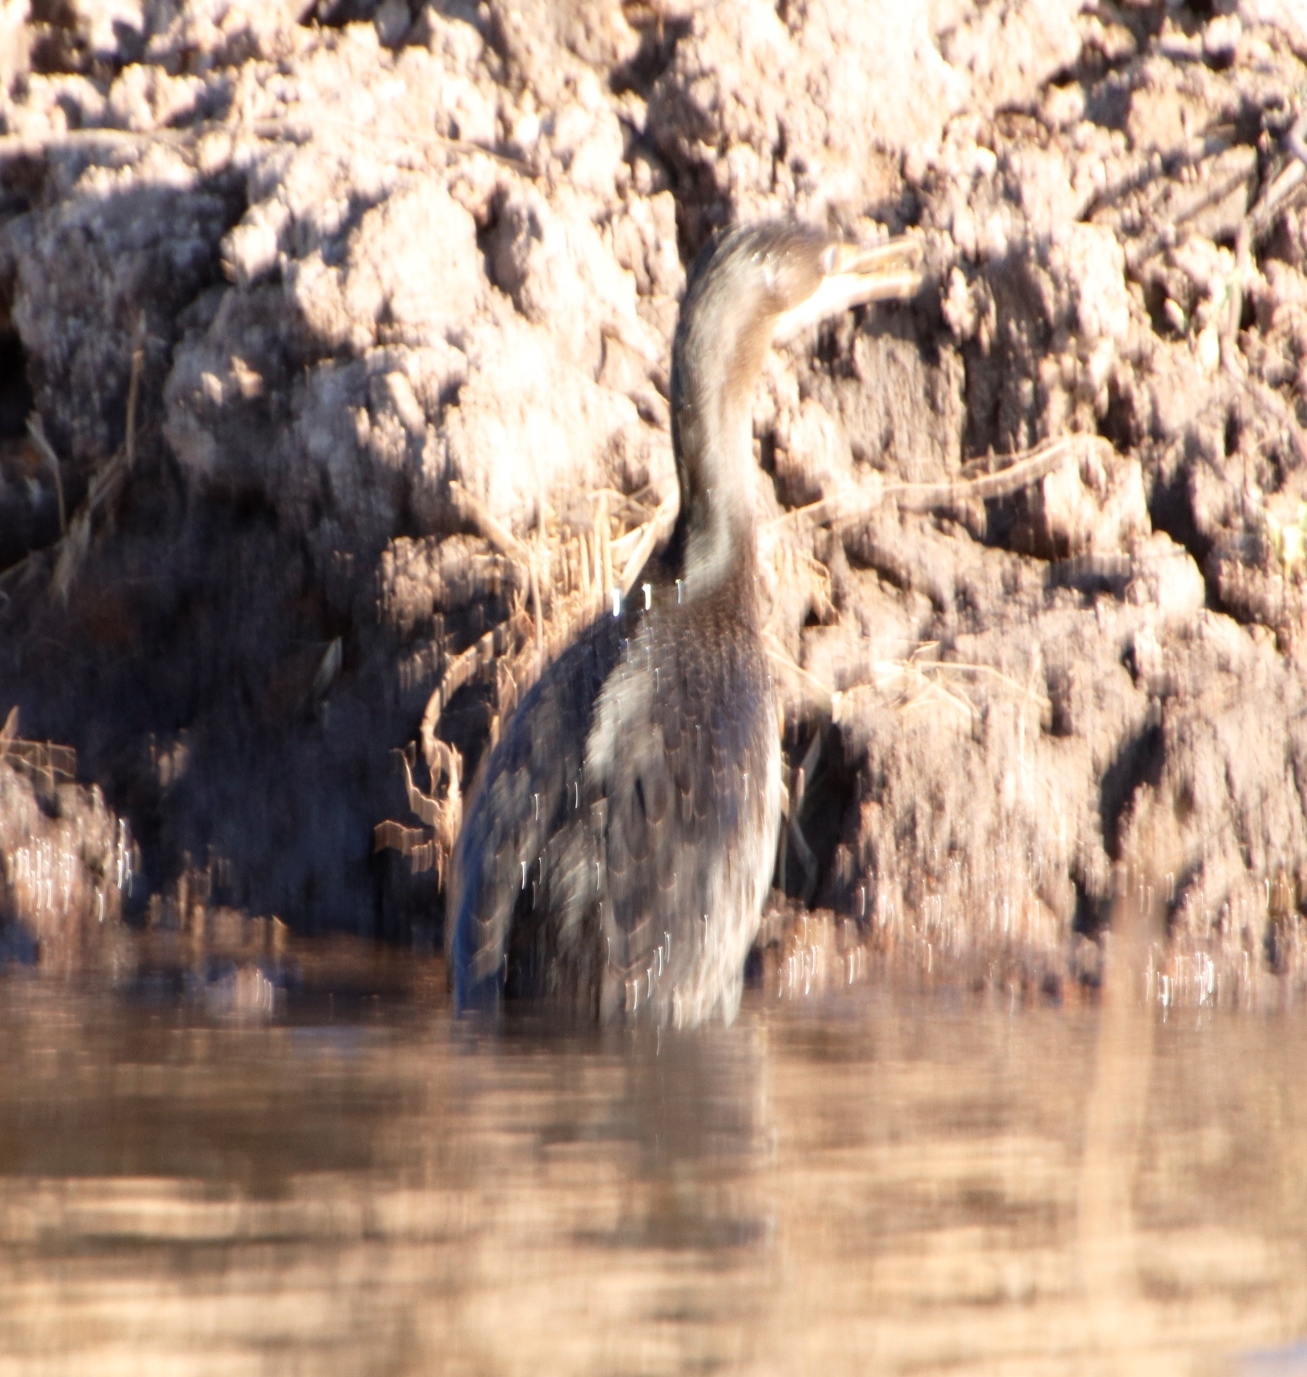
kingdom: Animalia
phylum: Chordata
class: Aves
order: Suliformes
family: Phalacrocoracidae
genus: Microcarbo
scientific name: Microcarbo africanus
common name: Long-tailed cormorant
